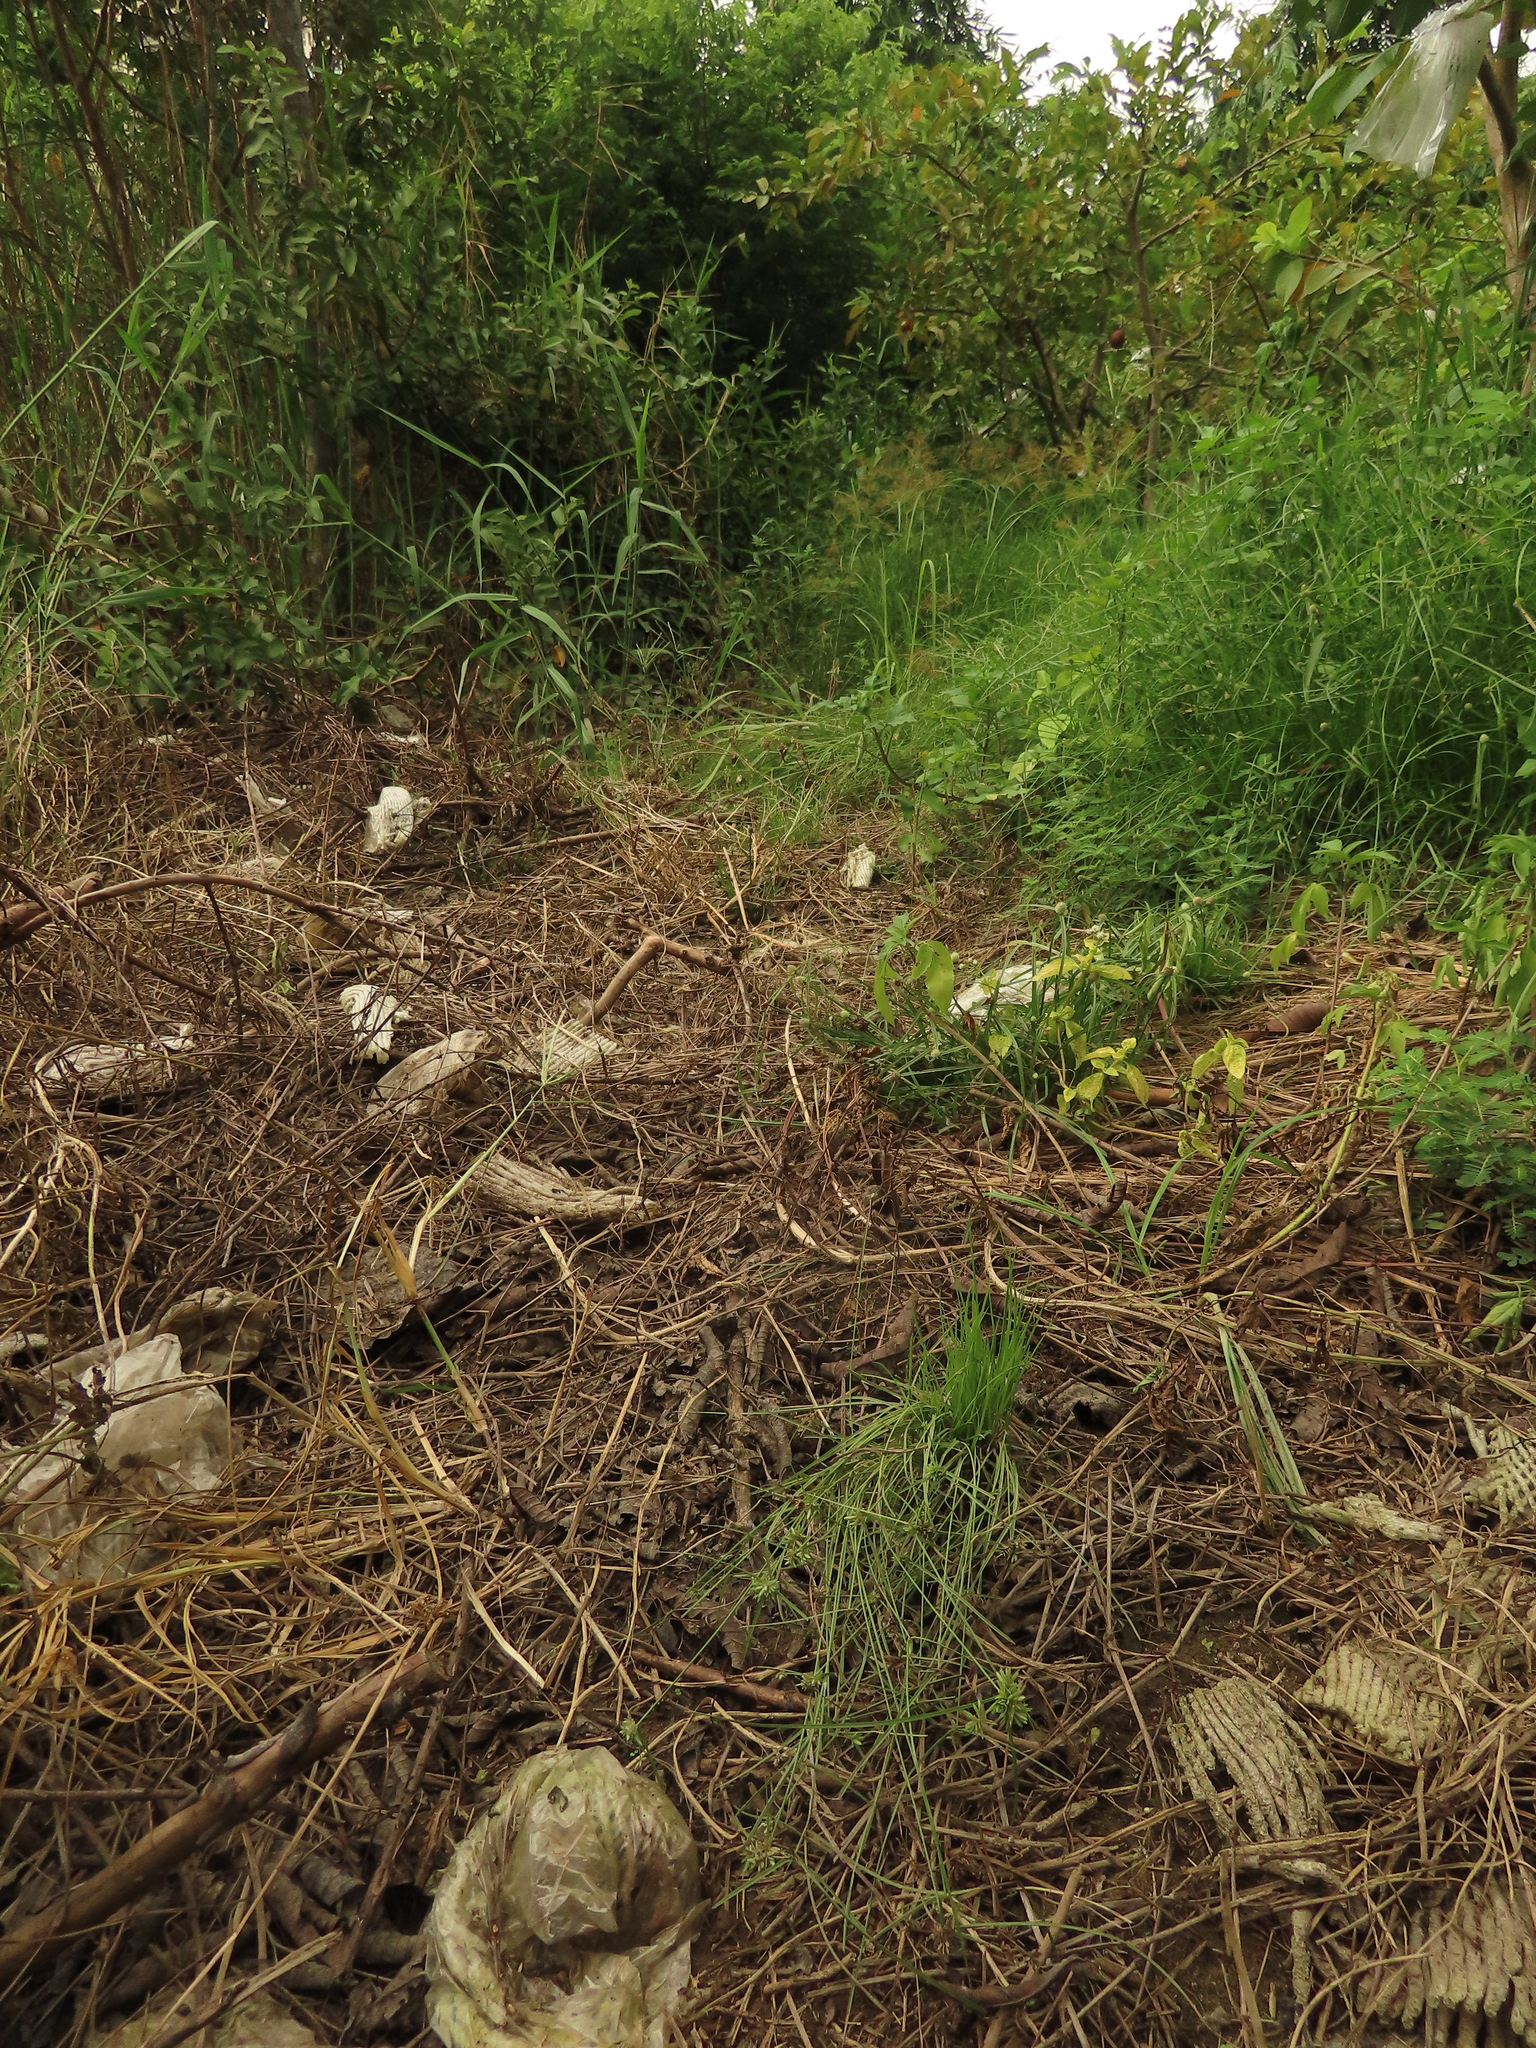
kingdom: Plantae
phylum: Tracheophyta
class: Liliopsida
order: Poales
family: Cyperaceae
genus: Cyperus
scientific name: Cyperus pumilus
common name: Low flatsedge
